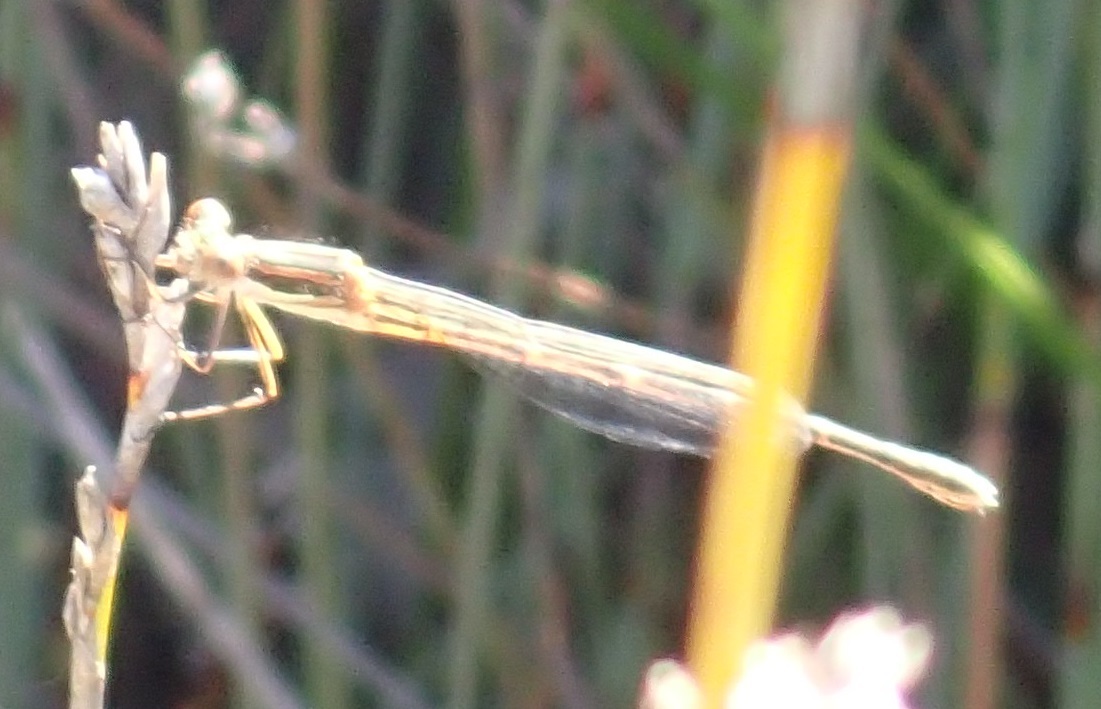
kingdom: Animalia
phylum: Arthropoda
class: Insecta
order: Odonata
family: Lestidae
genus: Austrolestes
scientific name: Austrolestes analis
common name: Slender ringtail
